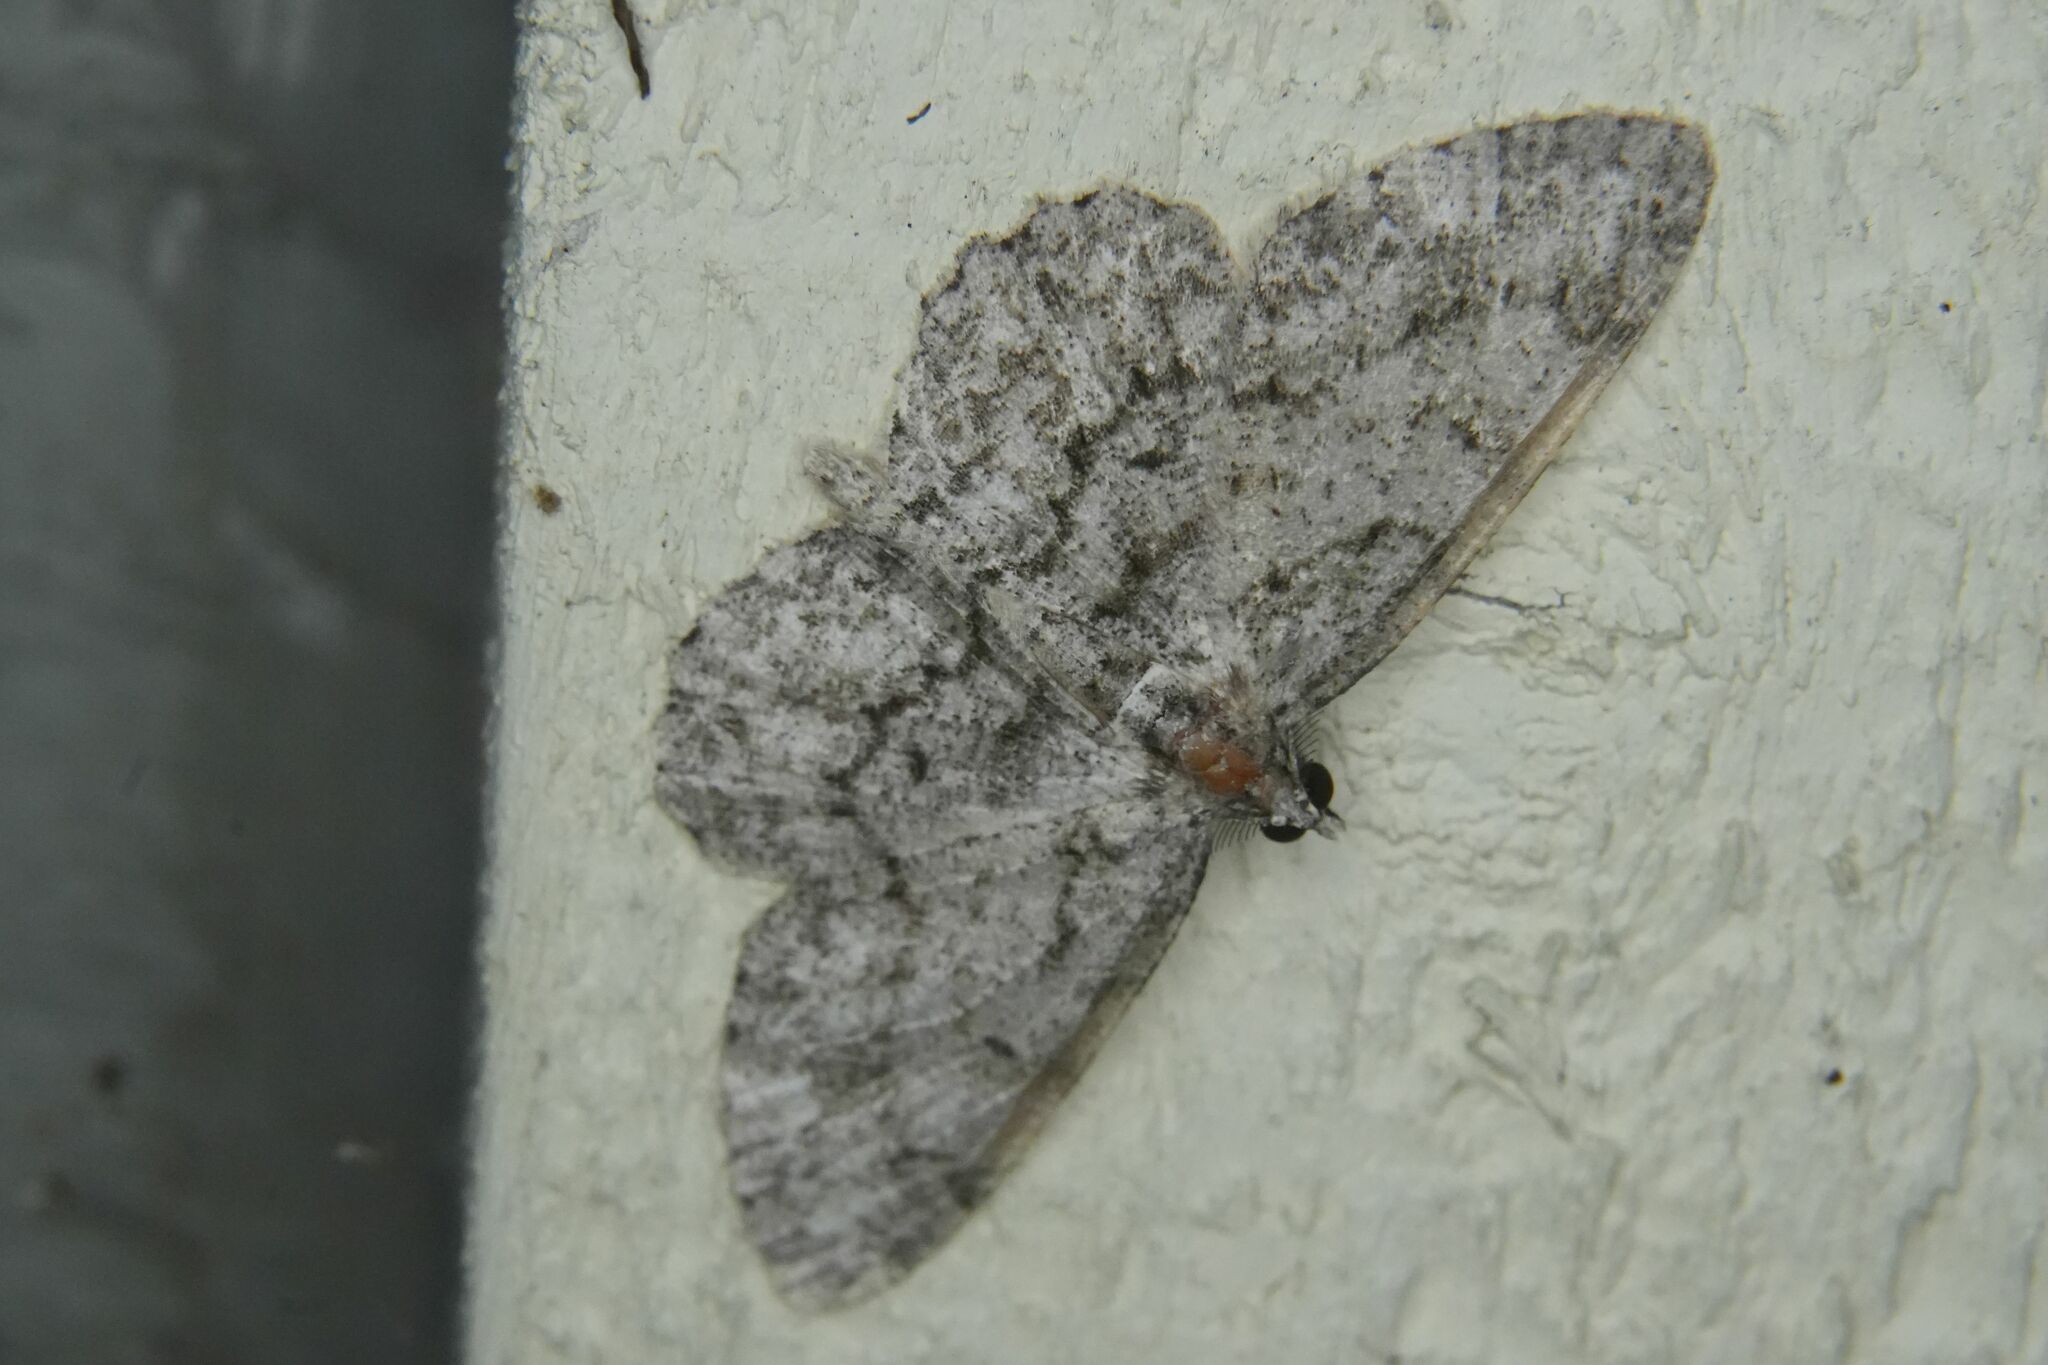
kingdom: Animalia
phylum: Arthropoda
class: Insecta
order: Lepidoptera
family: Geometridae
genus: Protoboarmia
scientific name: Protoboarmia porcelaria
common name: Porcelain gray
